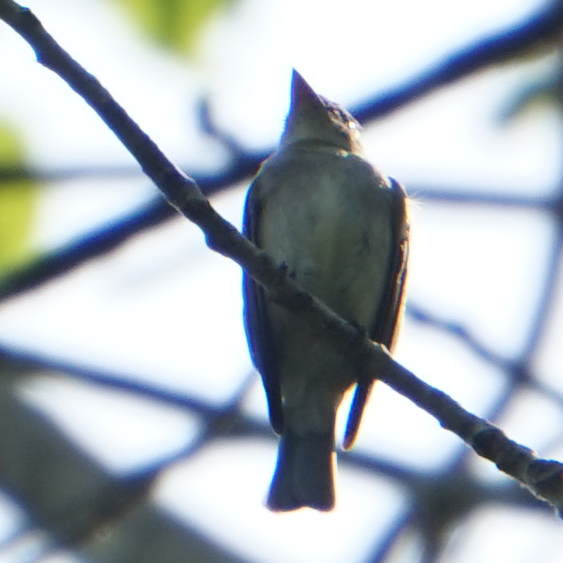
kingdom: Animalia
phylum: Chordata
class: Aves
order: Passeriformes
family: Tyrannidae
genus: Contopus
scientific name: Contopus virens
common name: Eastern wood-pewee
